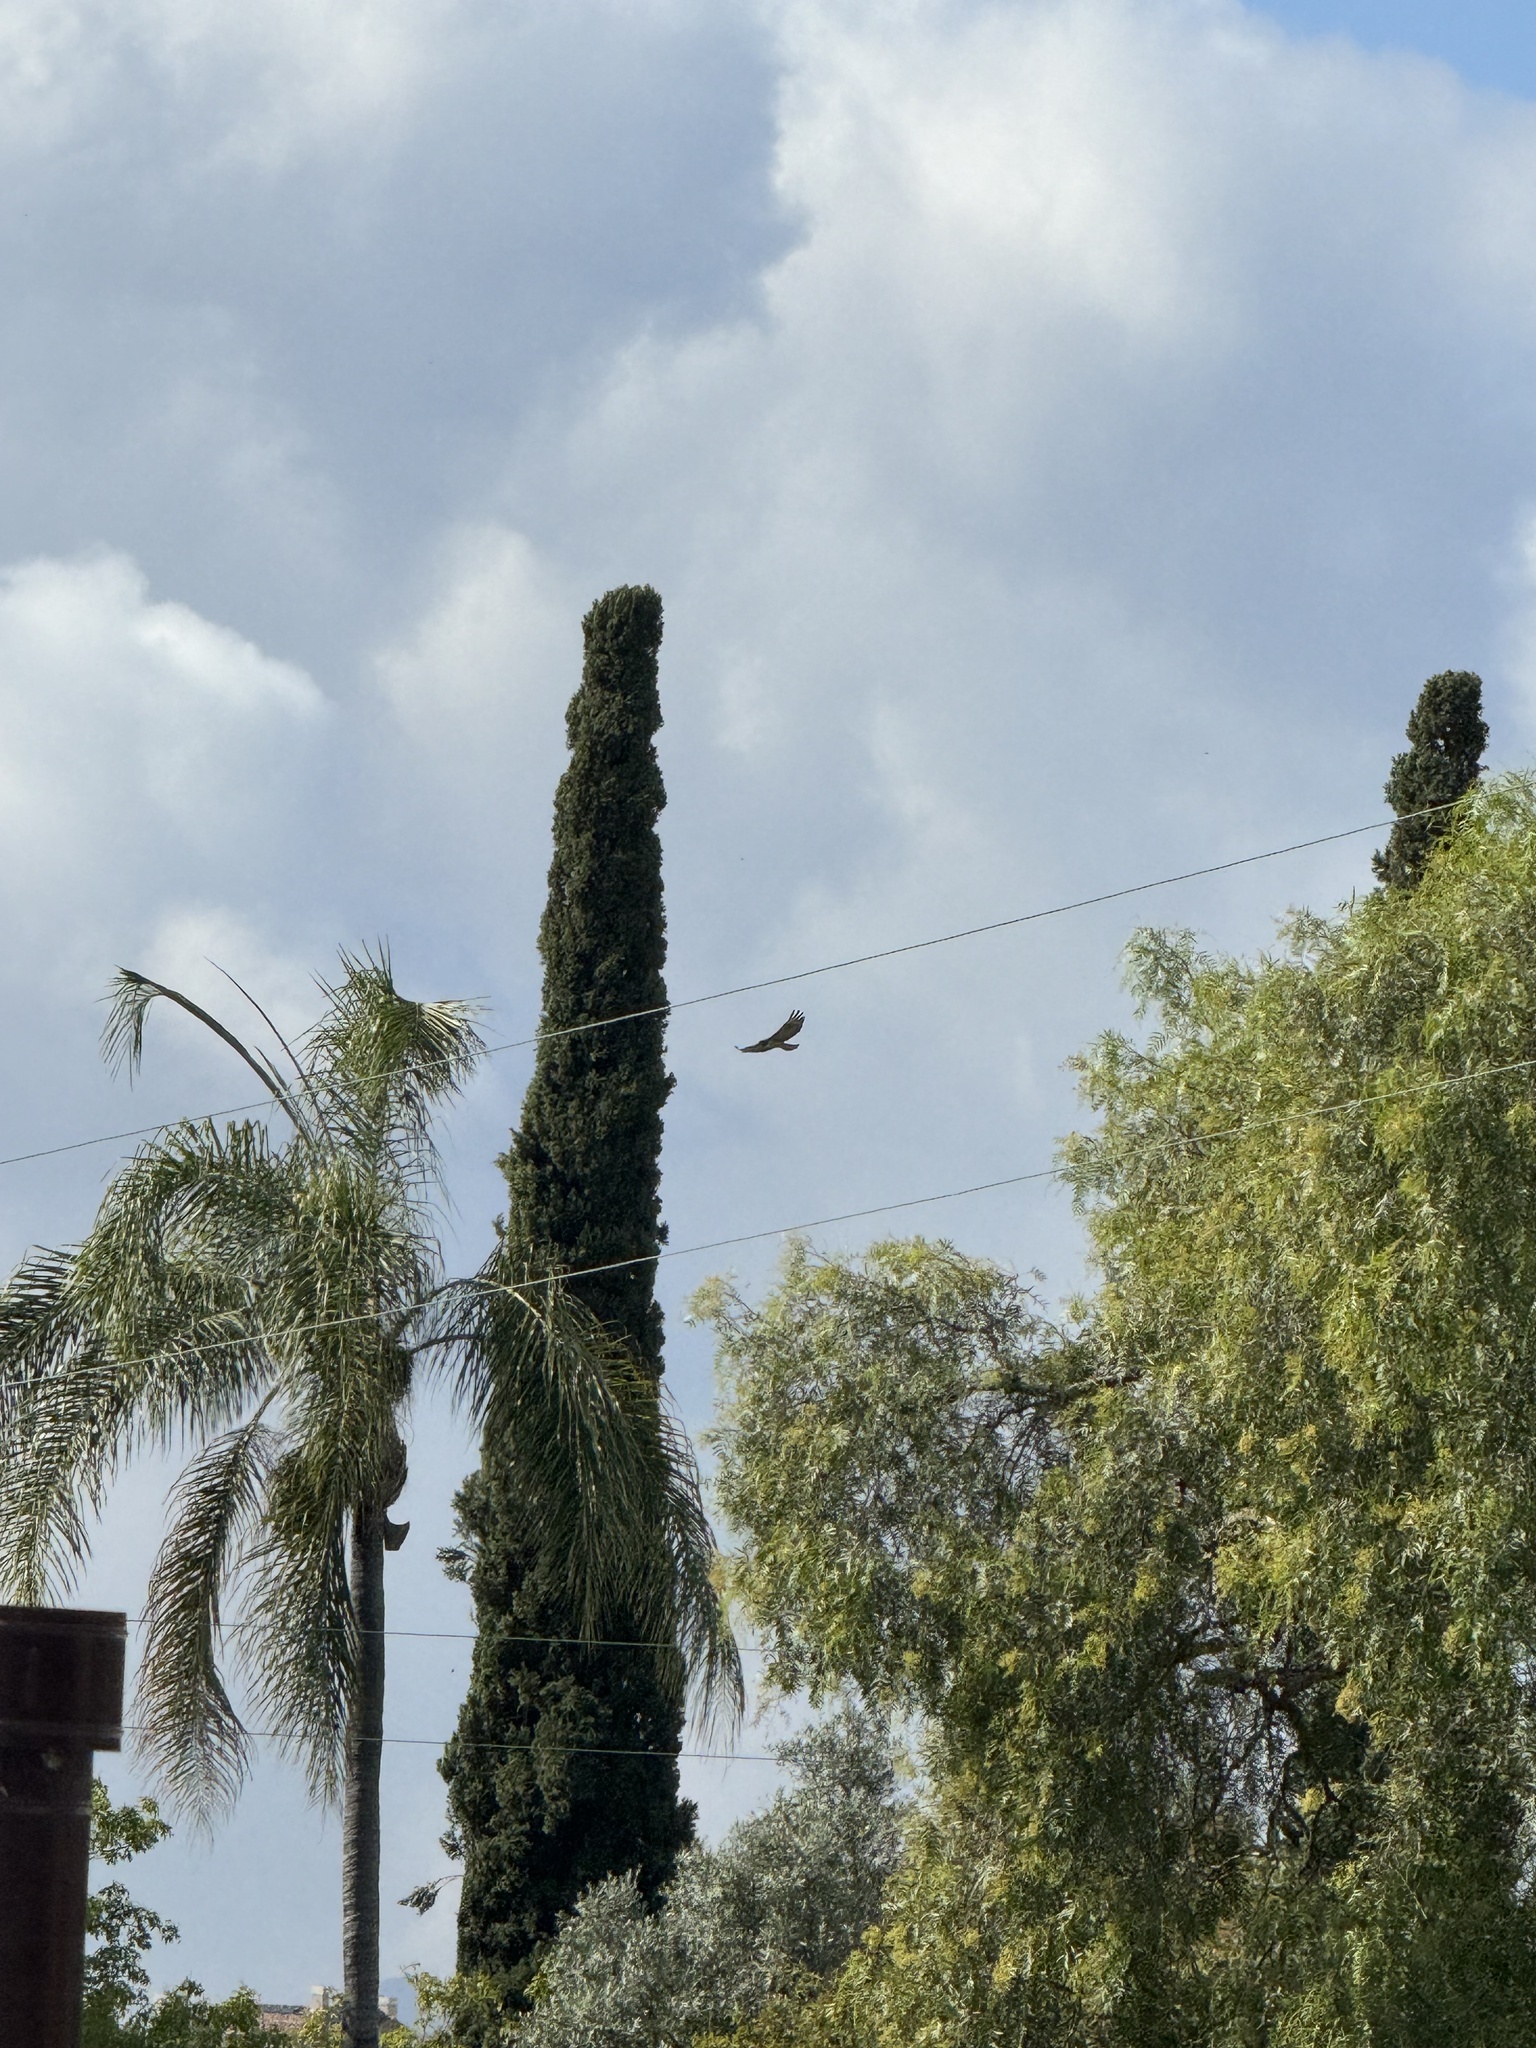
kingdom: Animalia
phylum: Chordata
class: Aves
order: Accipitriformes
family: Accipitridae
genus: Buteo
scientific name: Buteo jamaicensis
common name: Red-tailed hawk
